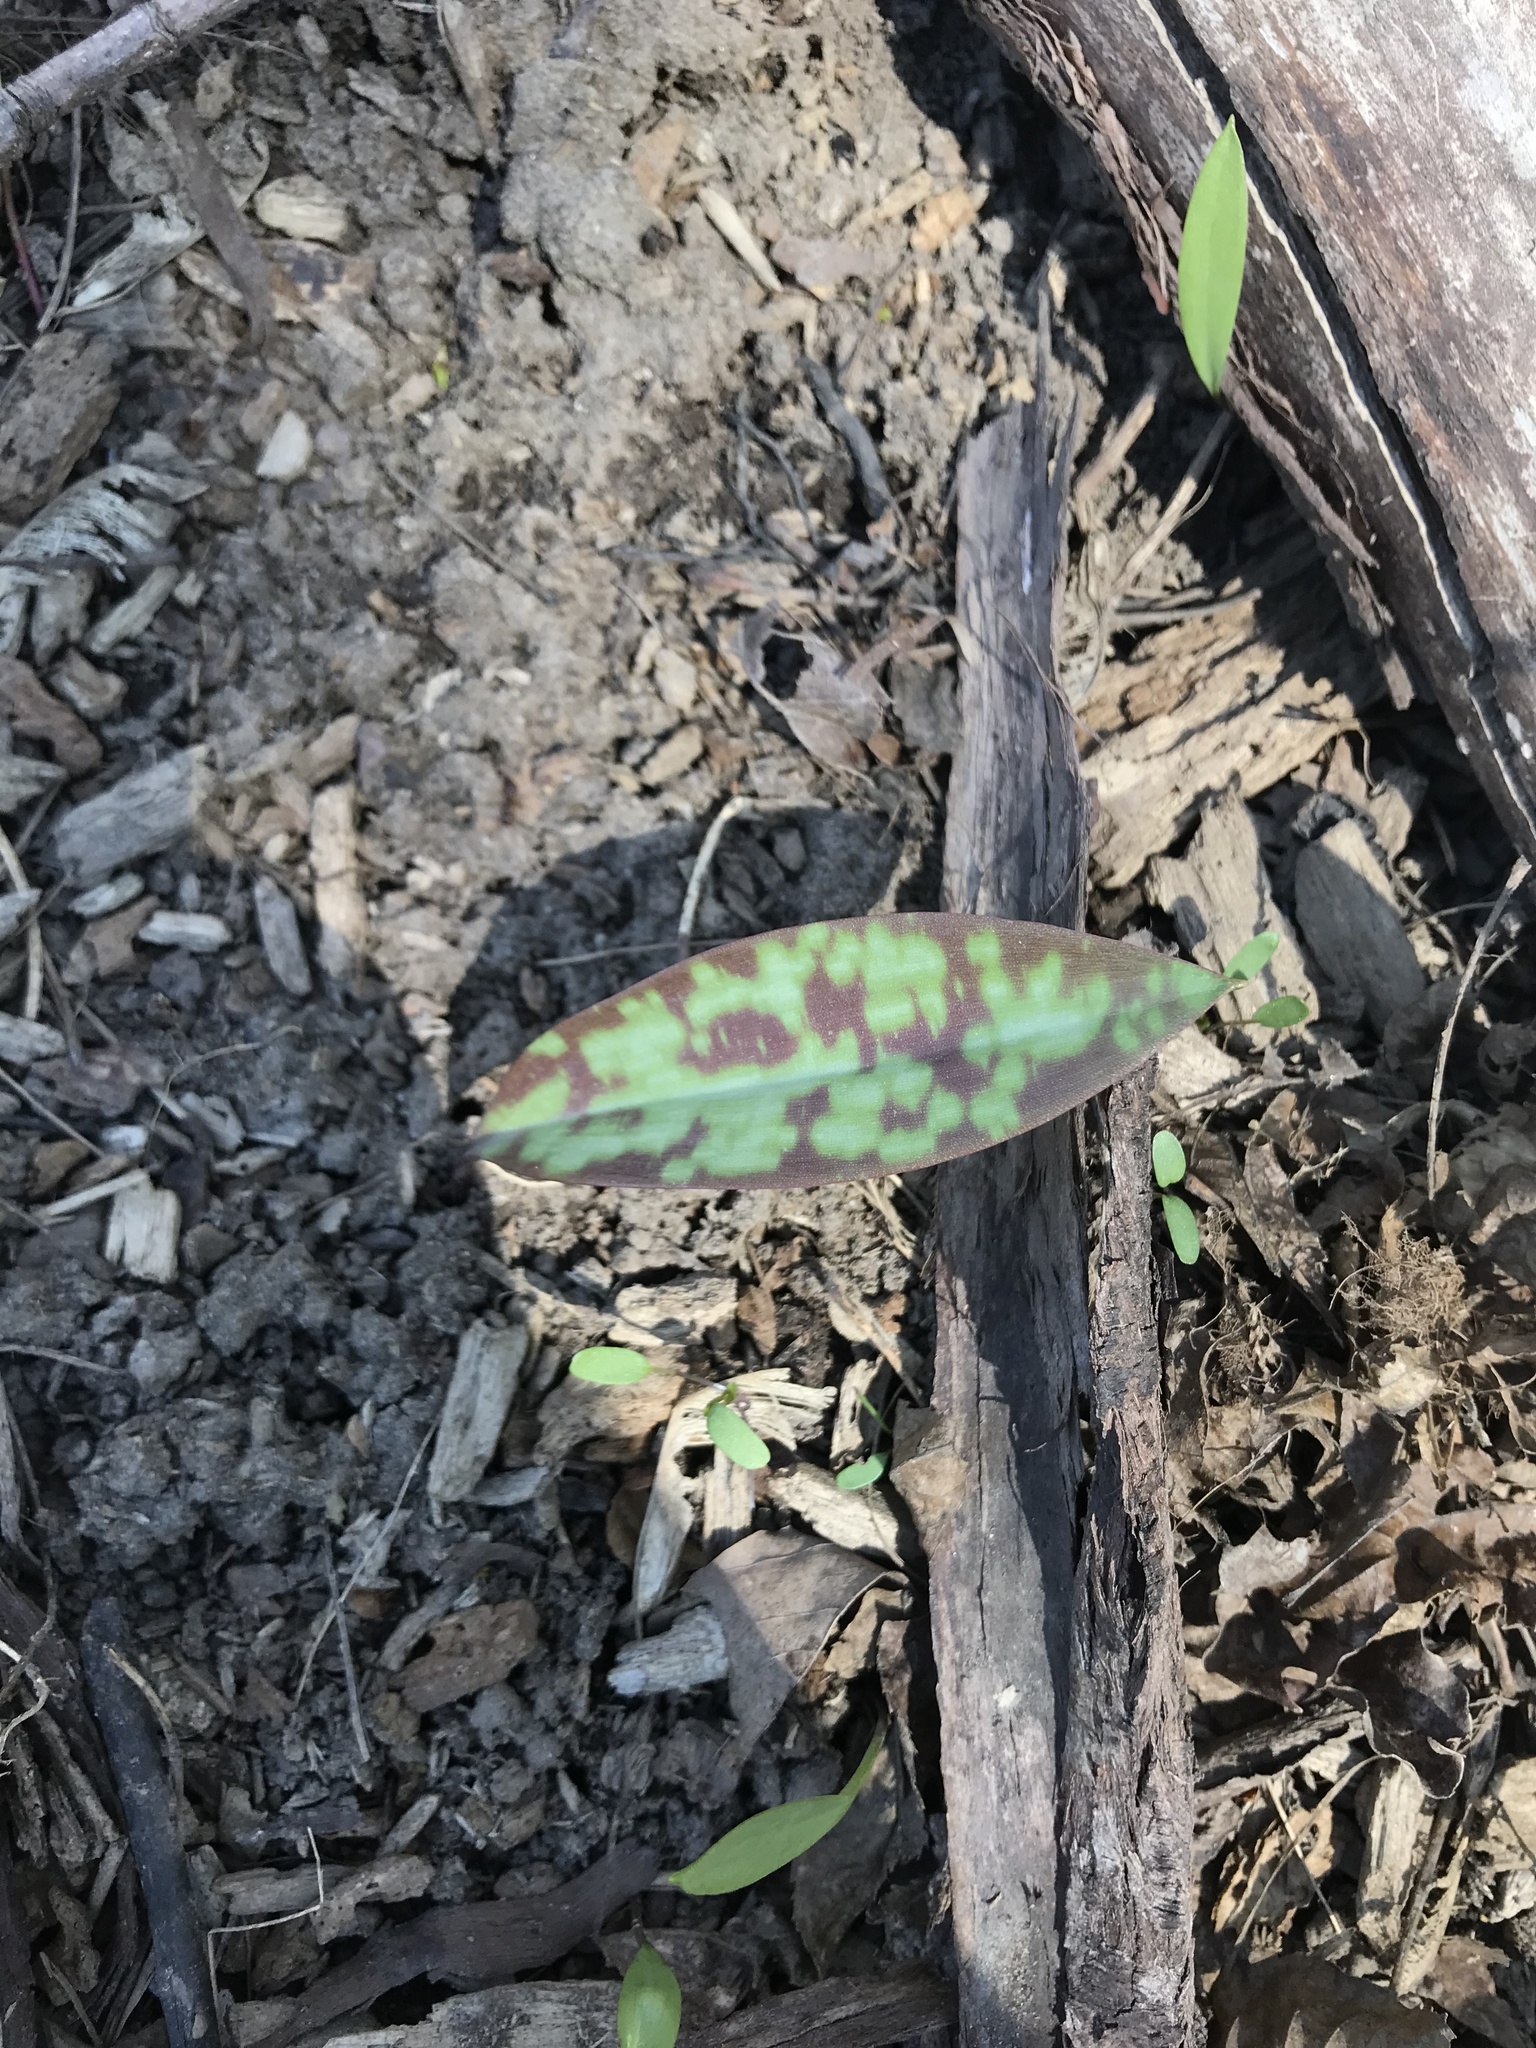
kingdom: Plantae
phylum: Tracheophyta
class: Liliopsida
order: Liliales
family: Liliaceae
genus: Erythronium
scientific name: Erythronium americanum
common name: Yellow adder's-tongue
